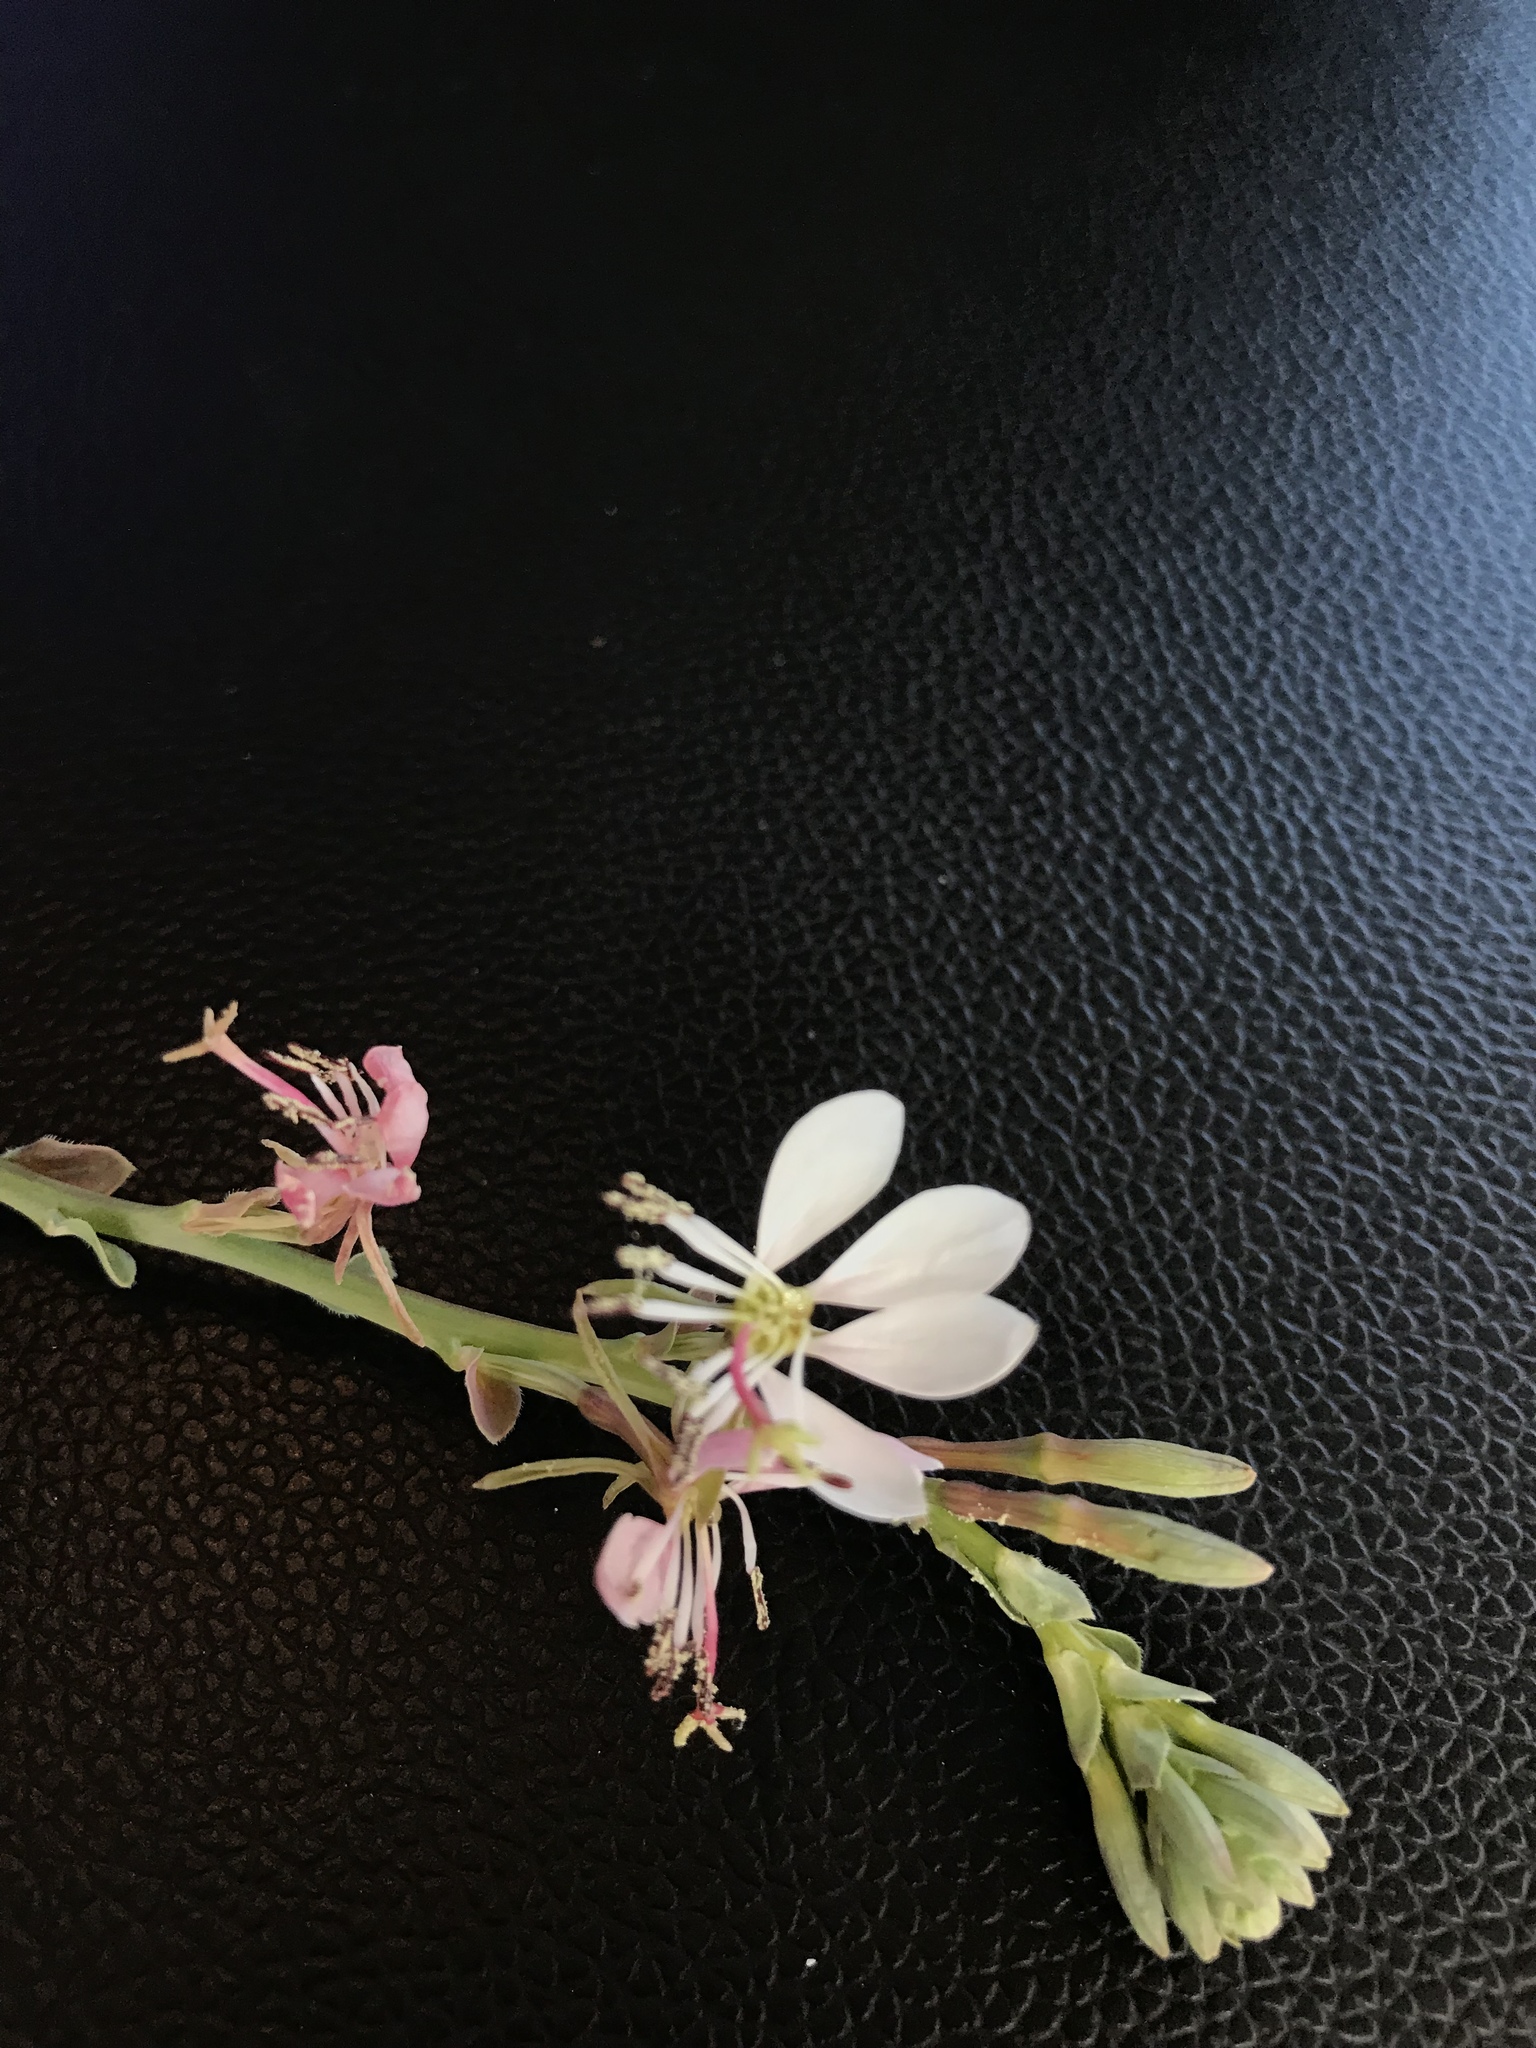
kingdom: Plantae
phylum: Tracheophyta
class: Magnoliopsida
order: Myrtales
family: Onagraceae
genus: Oenothera
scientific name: Oenothera suffulta
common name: Kisses
